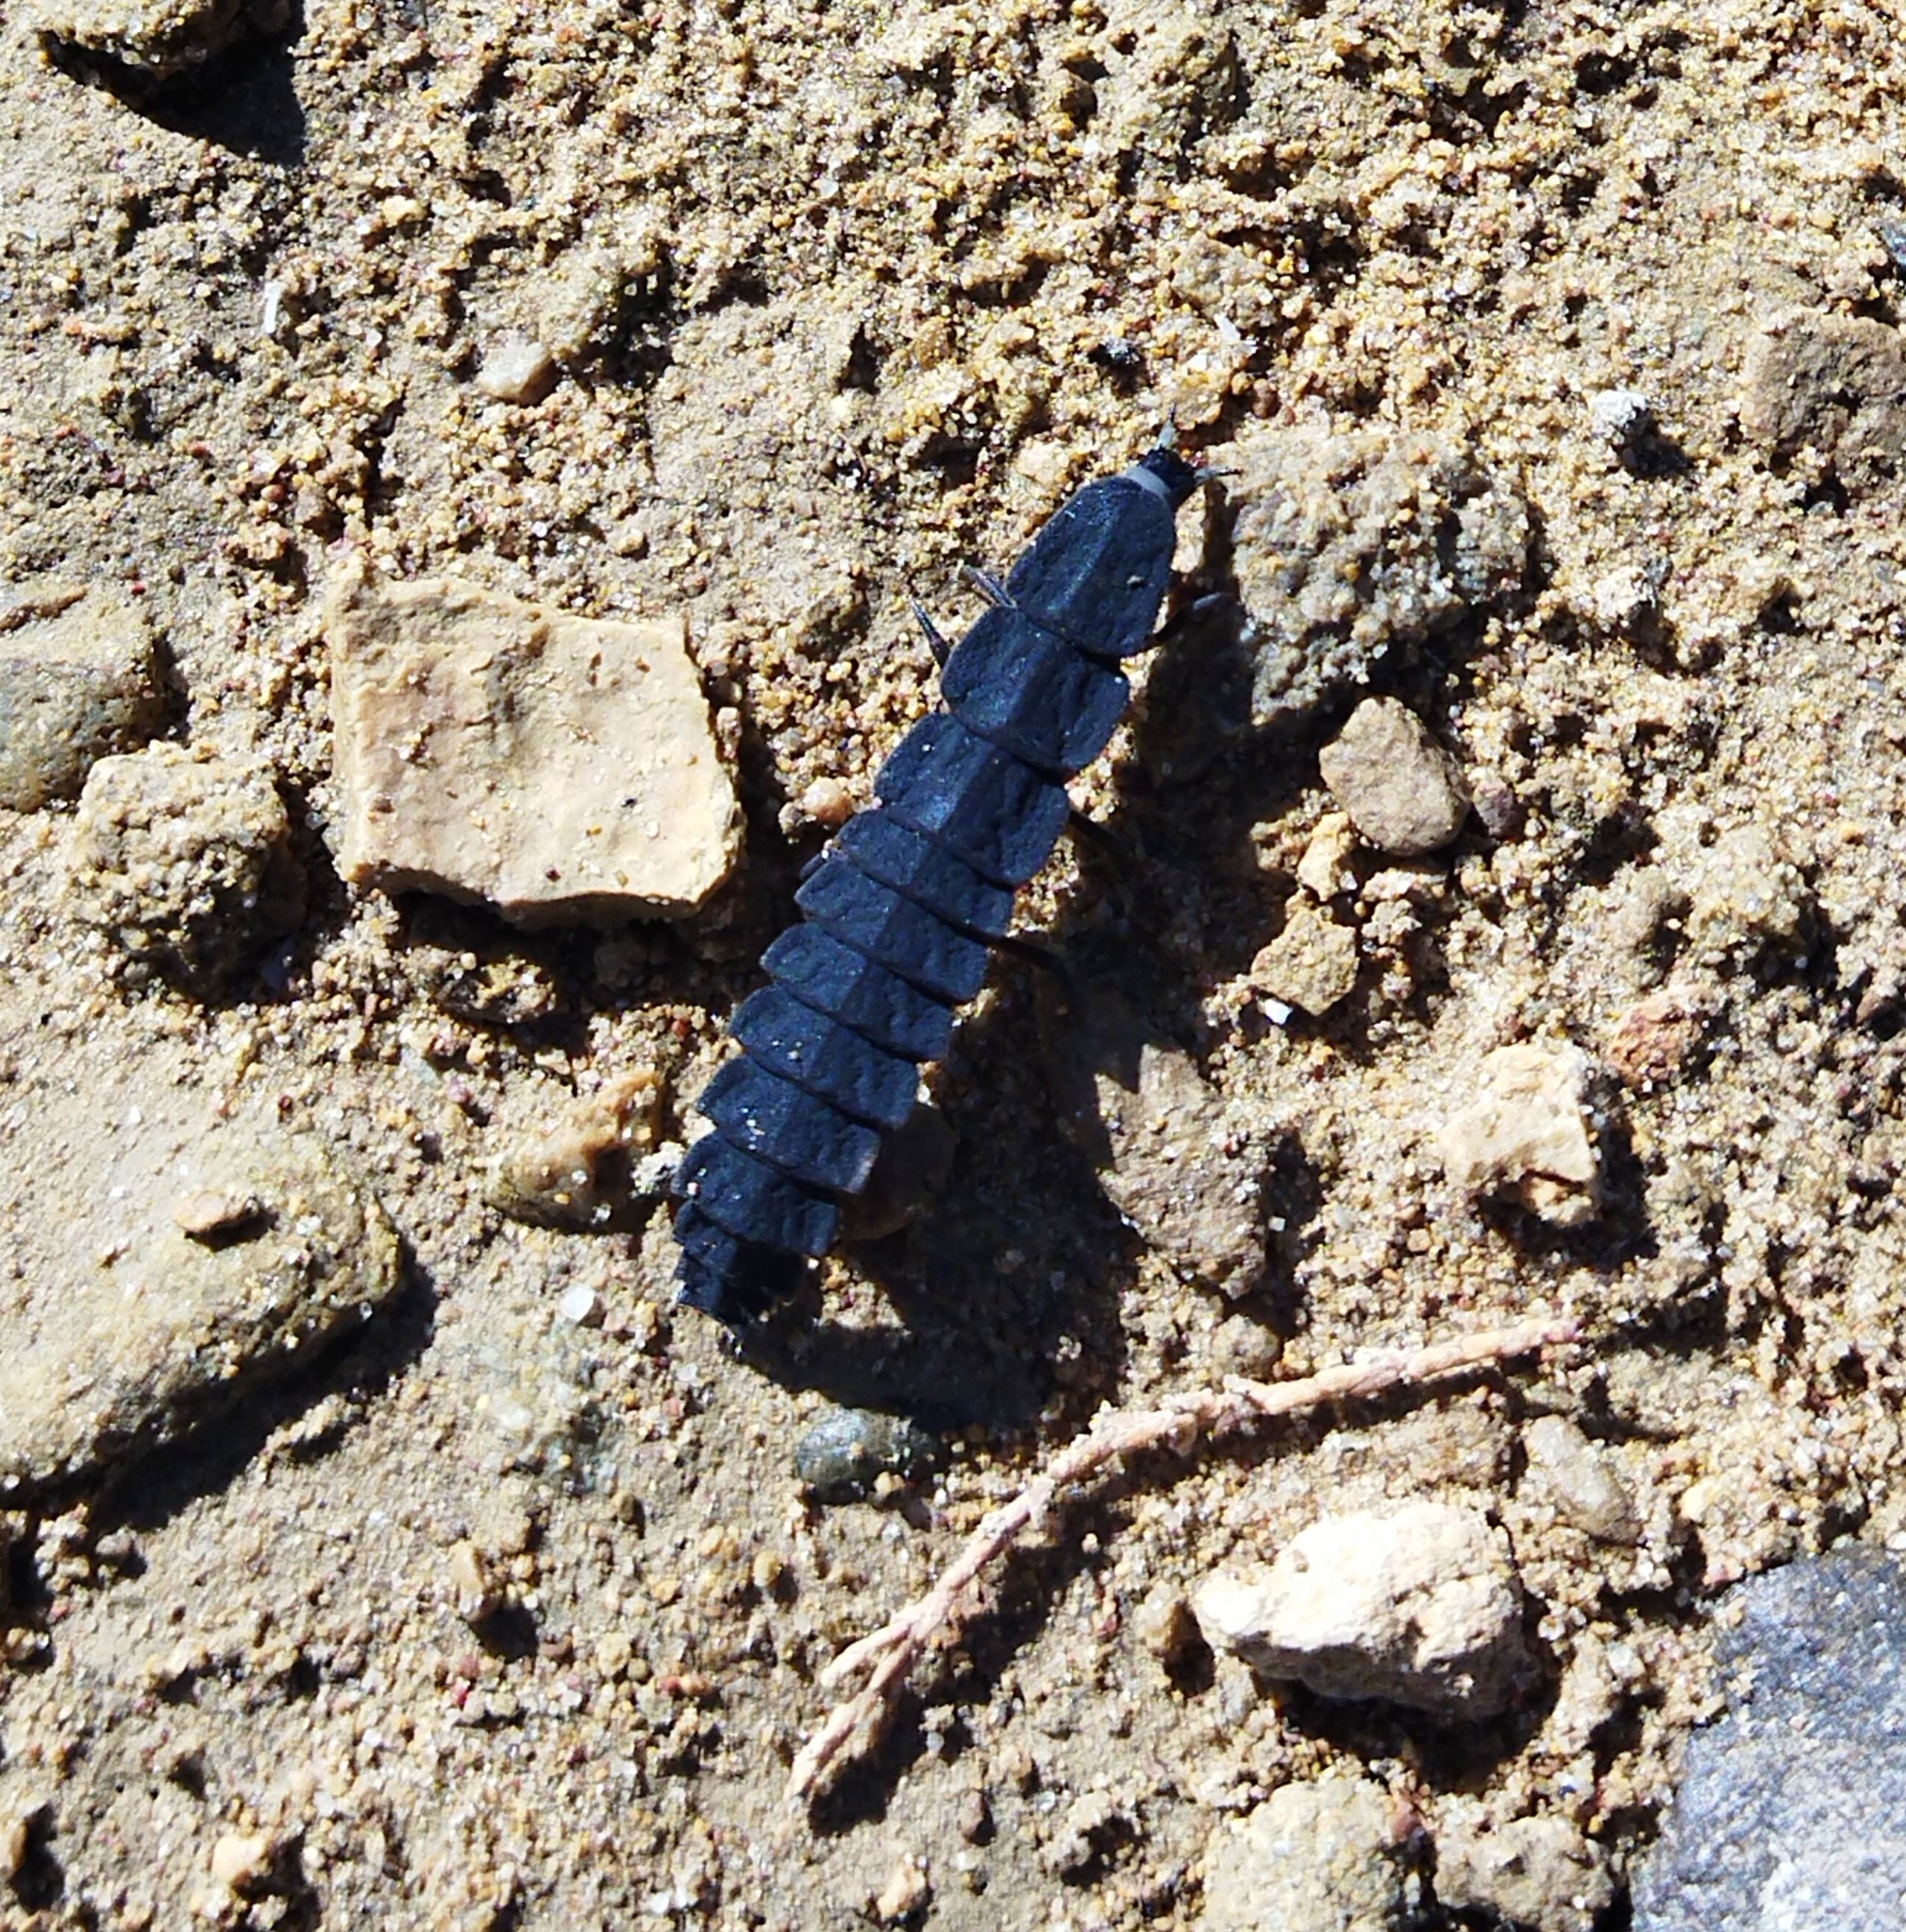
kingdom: Animalia
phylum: Arthropoda
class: Insecta
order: Coleoptera
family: Lampyridae
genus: Nyctophila
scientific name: Nyctophila reichii
